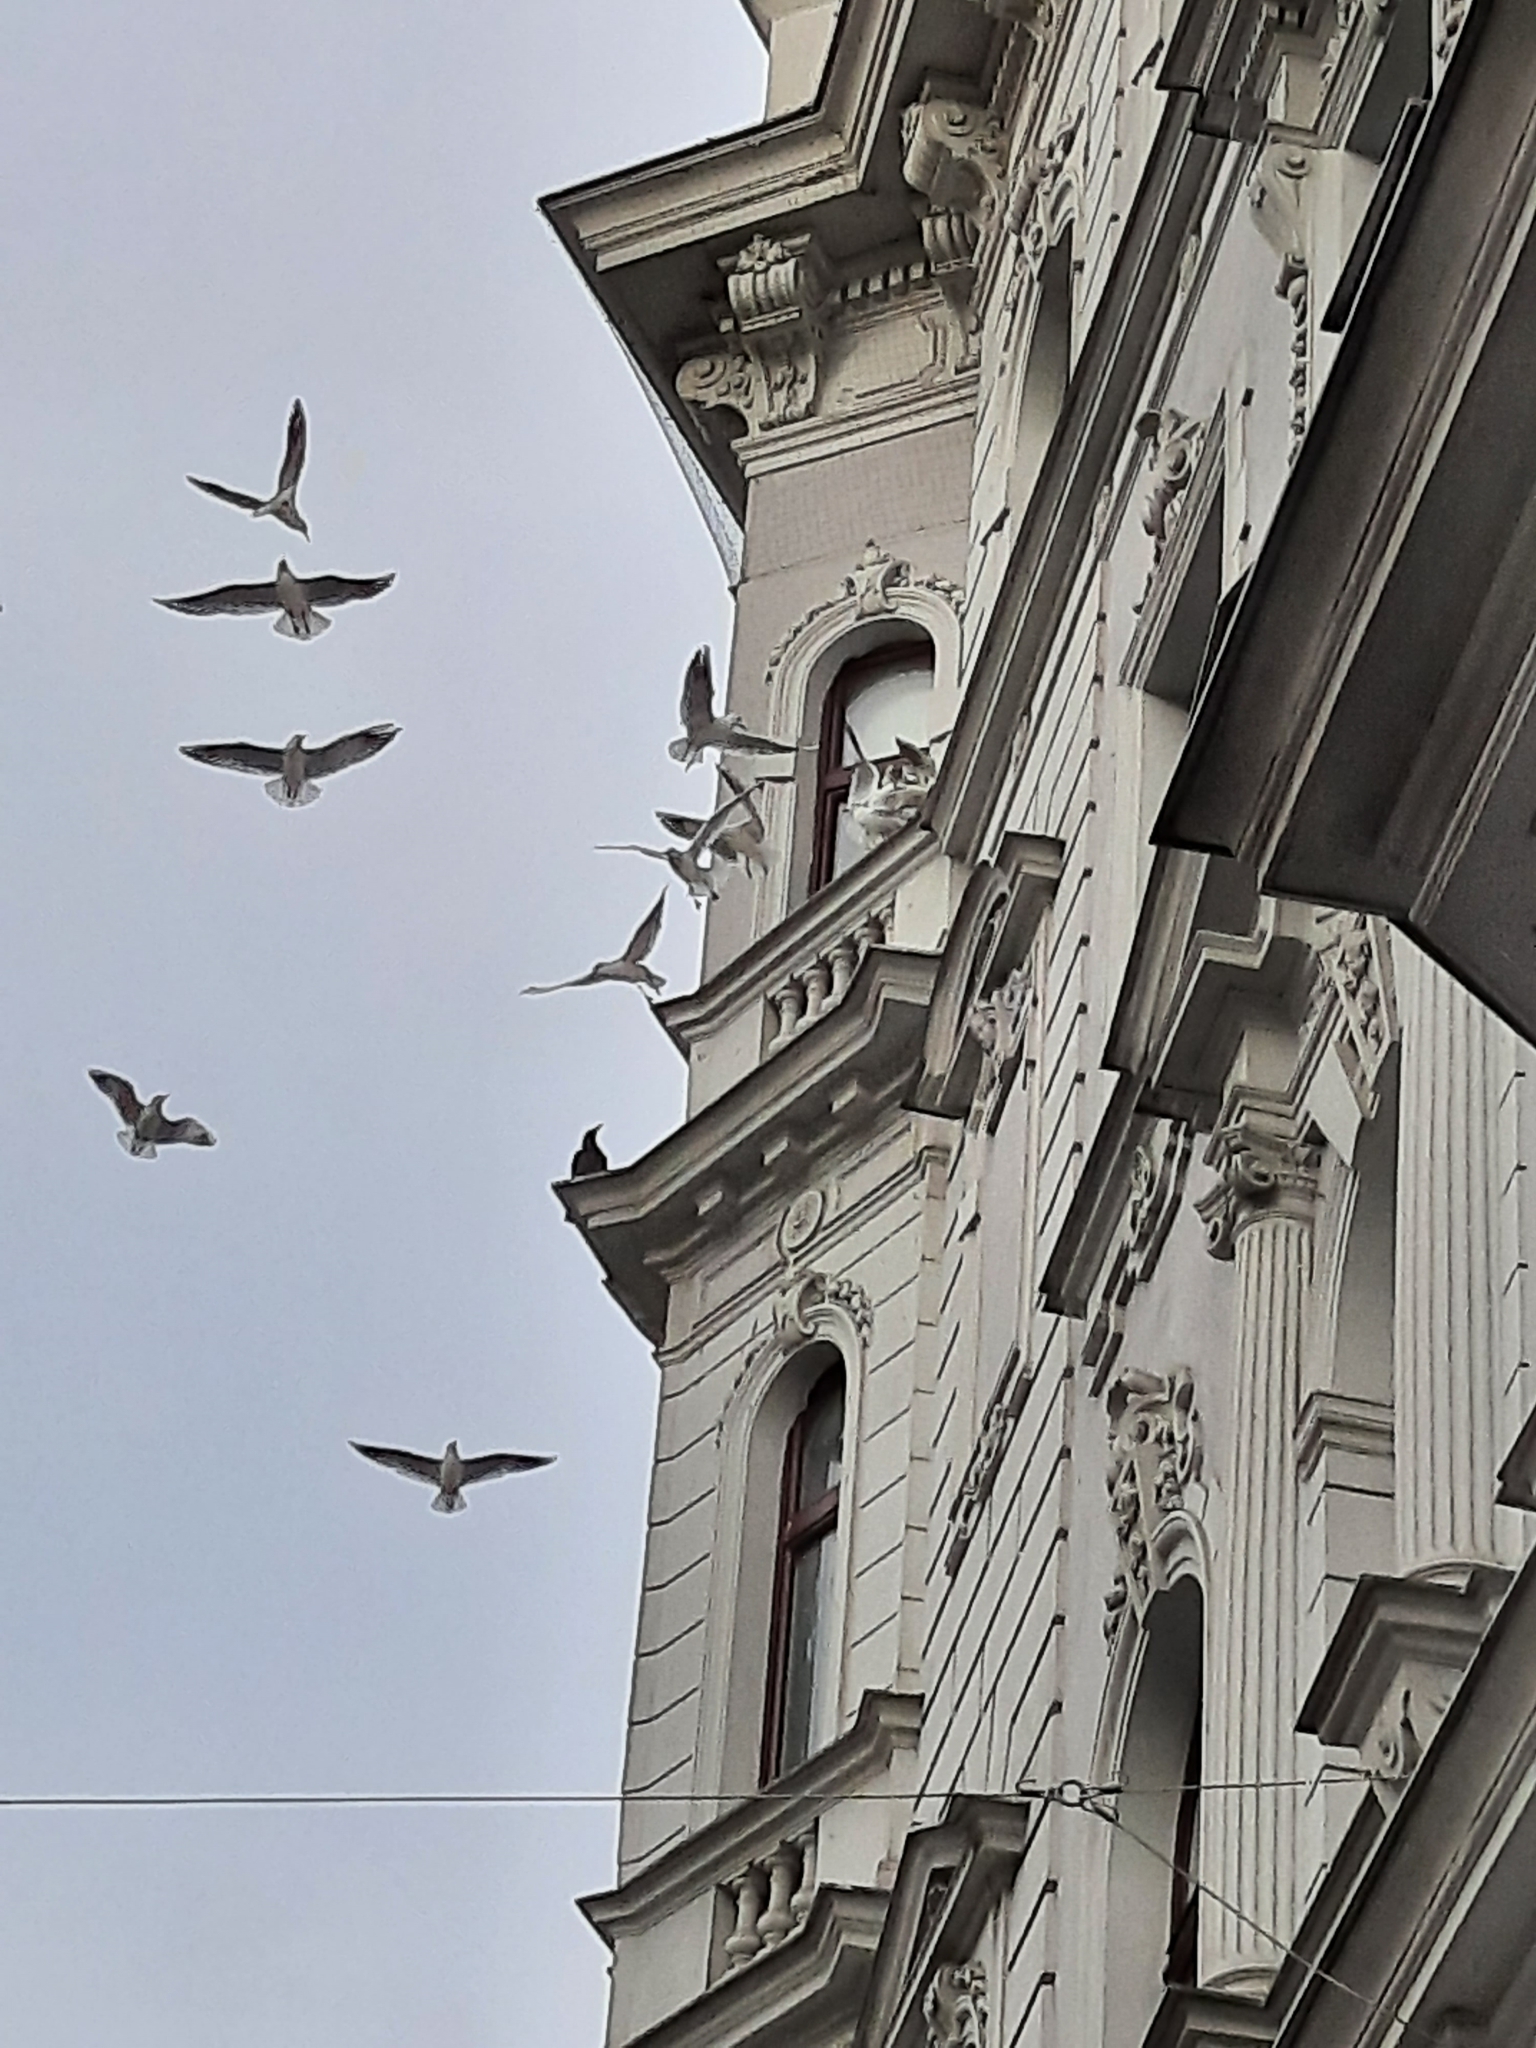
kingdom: Animalia
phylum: Chordata
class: Aves
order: Charadriiformes
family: Laridae
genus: Chroicocephalus
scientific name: Chroicocephalus ridibundus
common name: Black-headed gull
